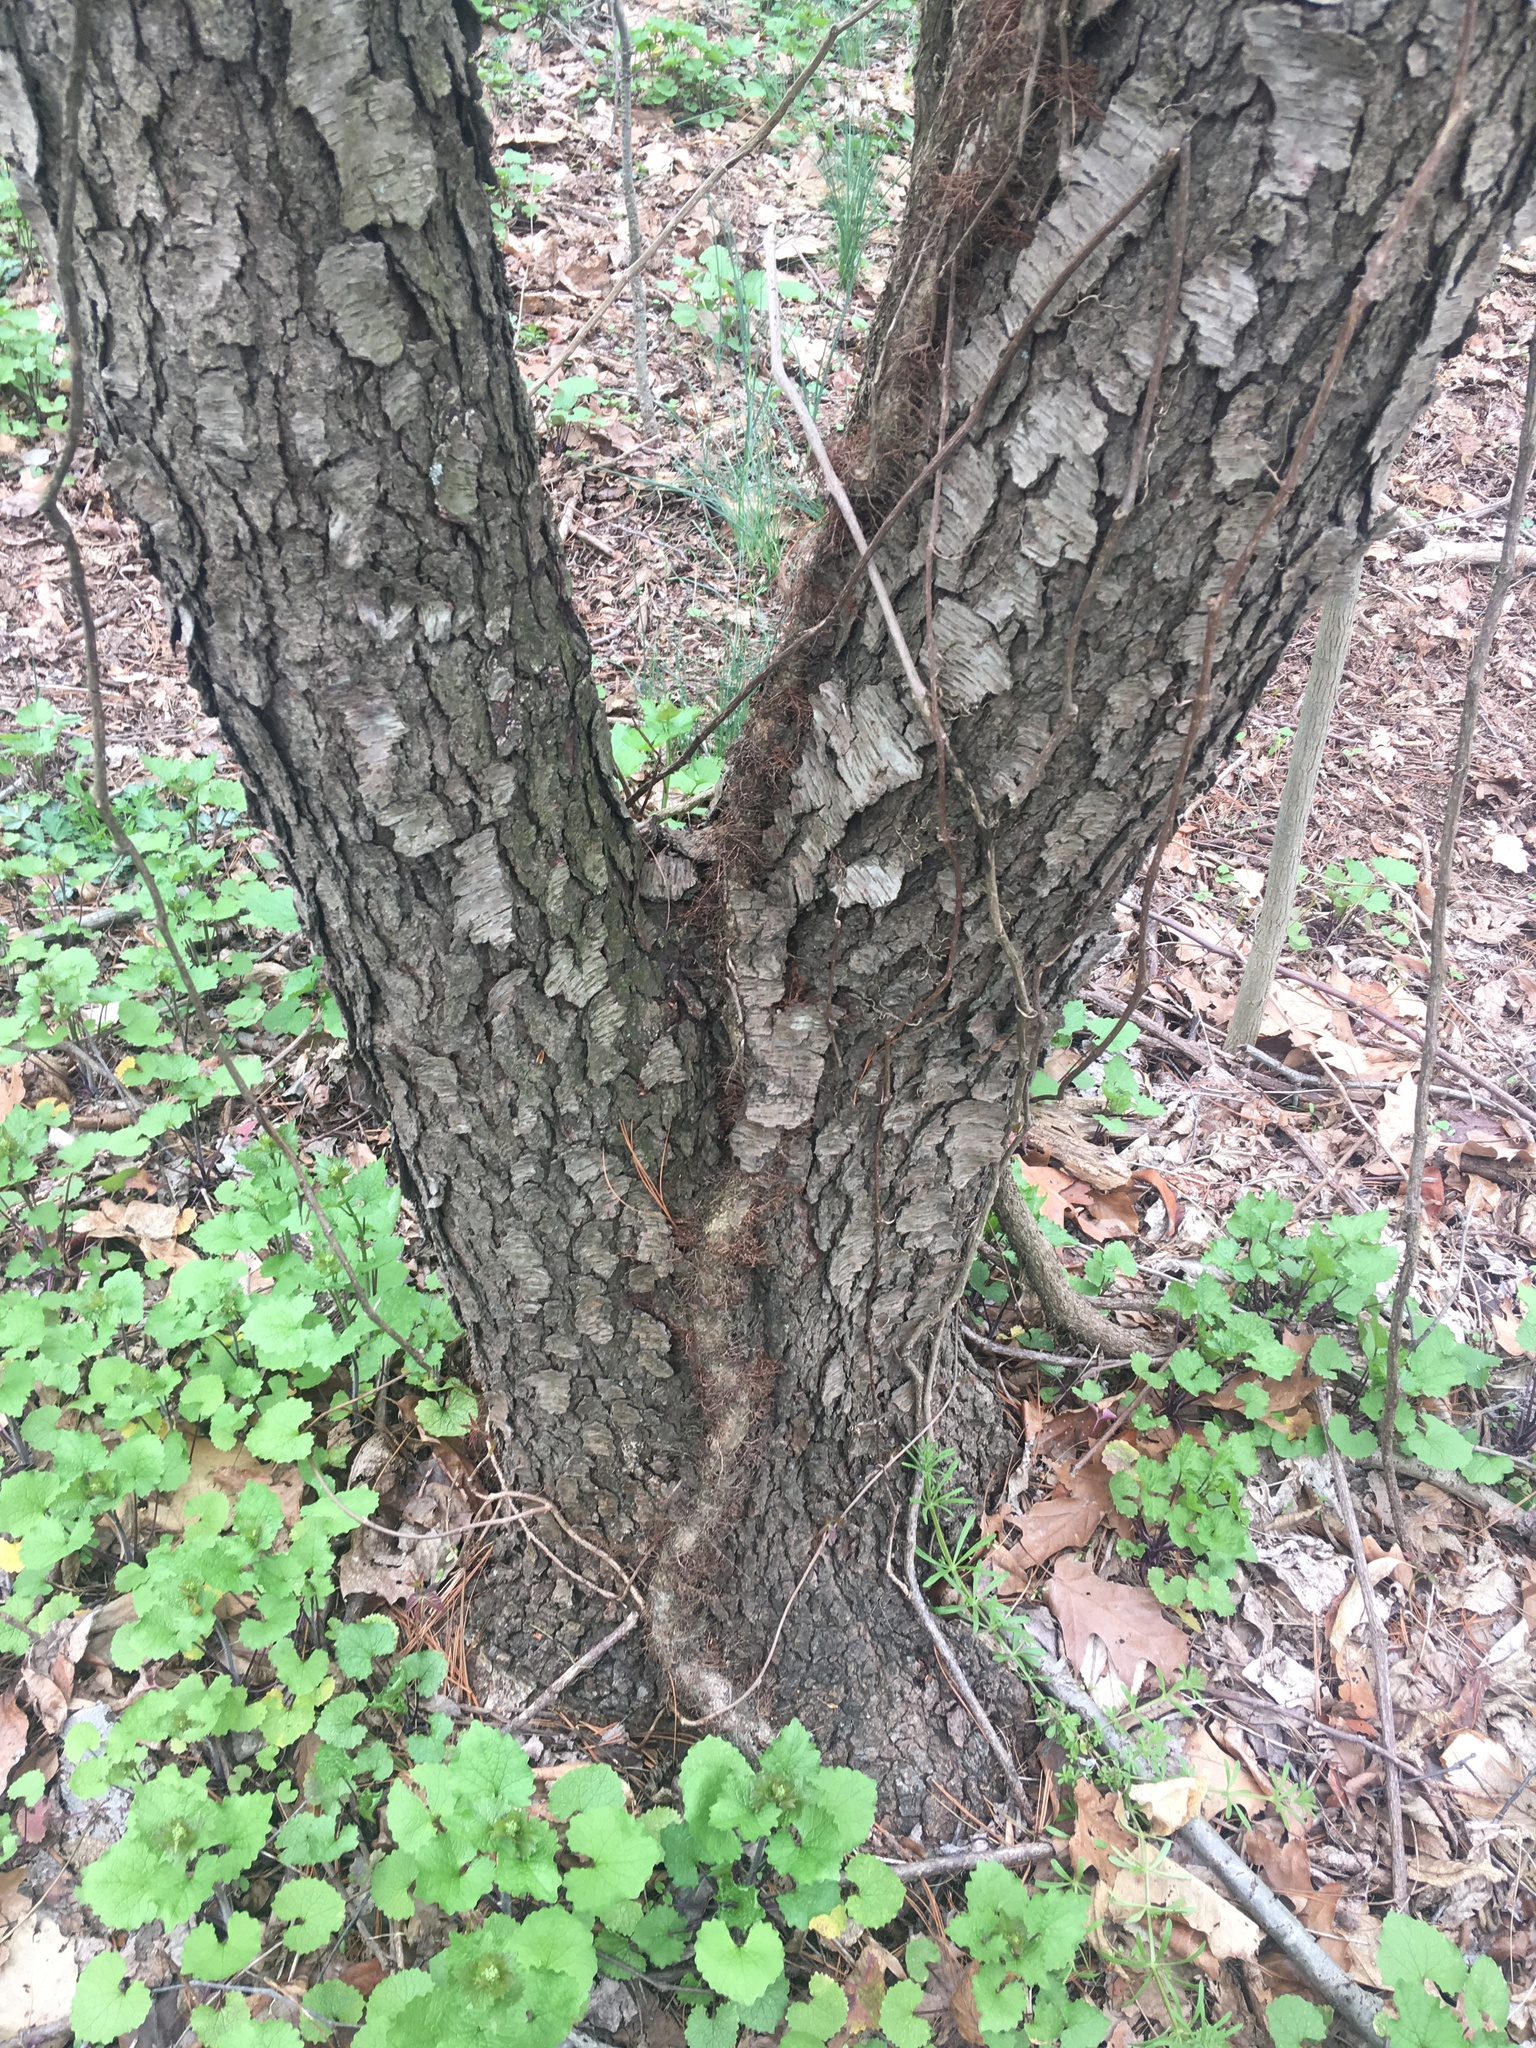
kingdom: Plantae
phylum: Tracheophyta
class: Magnoliopsida
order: Rosales
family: Rosaceae
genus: Prunus
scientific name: Prunus serotina
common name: Black cherry
